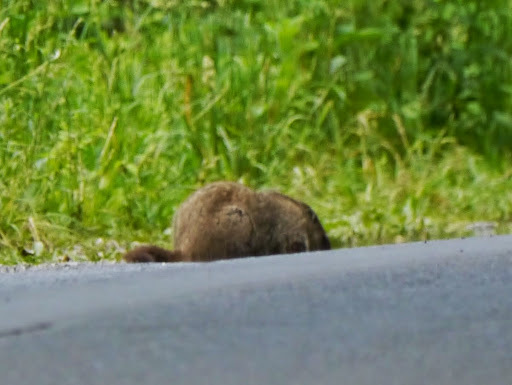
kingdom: Animalia
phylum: Chordata
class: Mammalia
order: Rodentia
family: Sciuridae
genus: Marmota
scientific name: Marmota monax
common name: Groundhog
